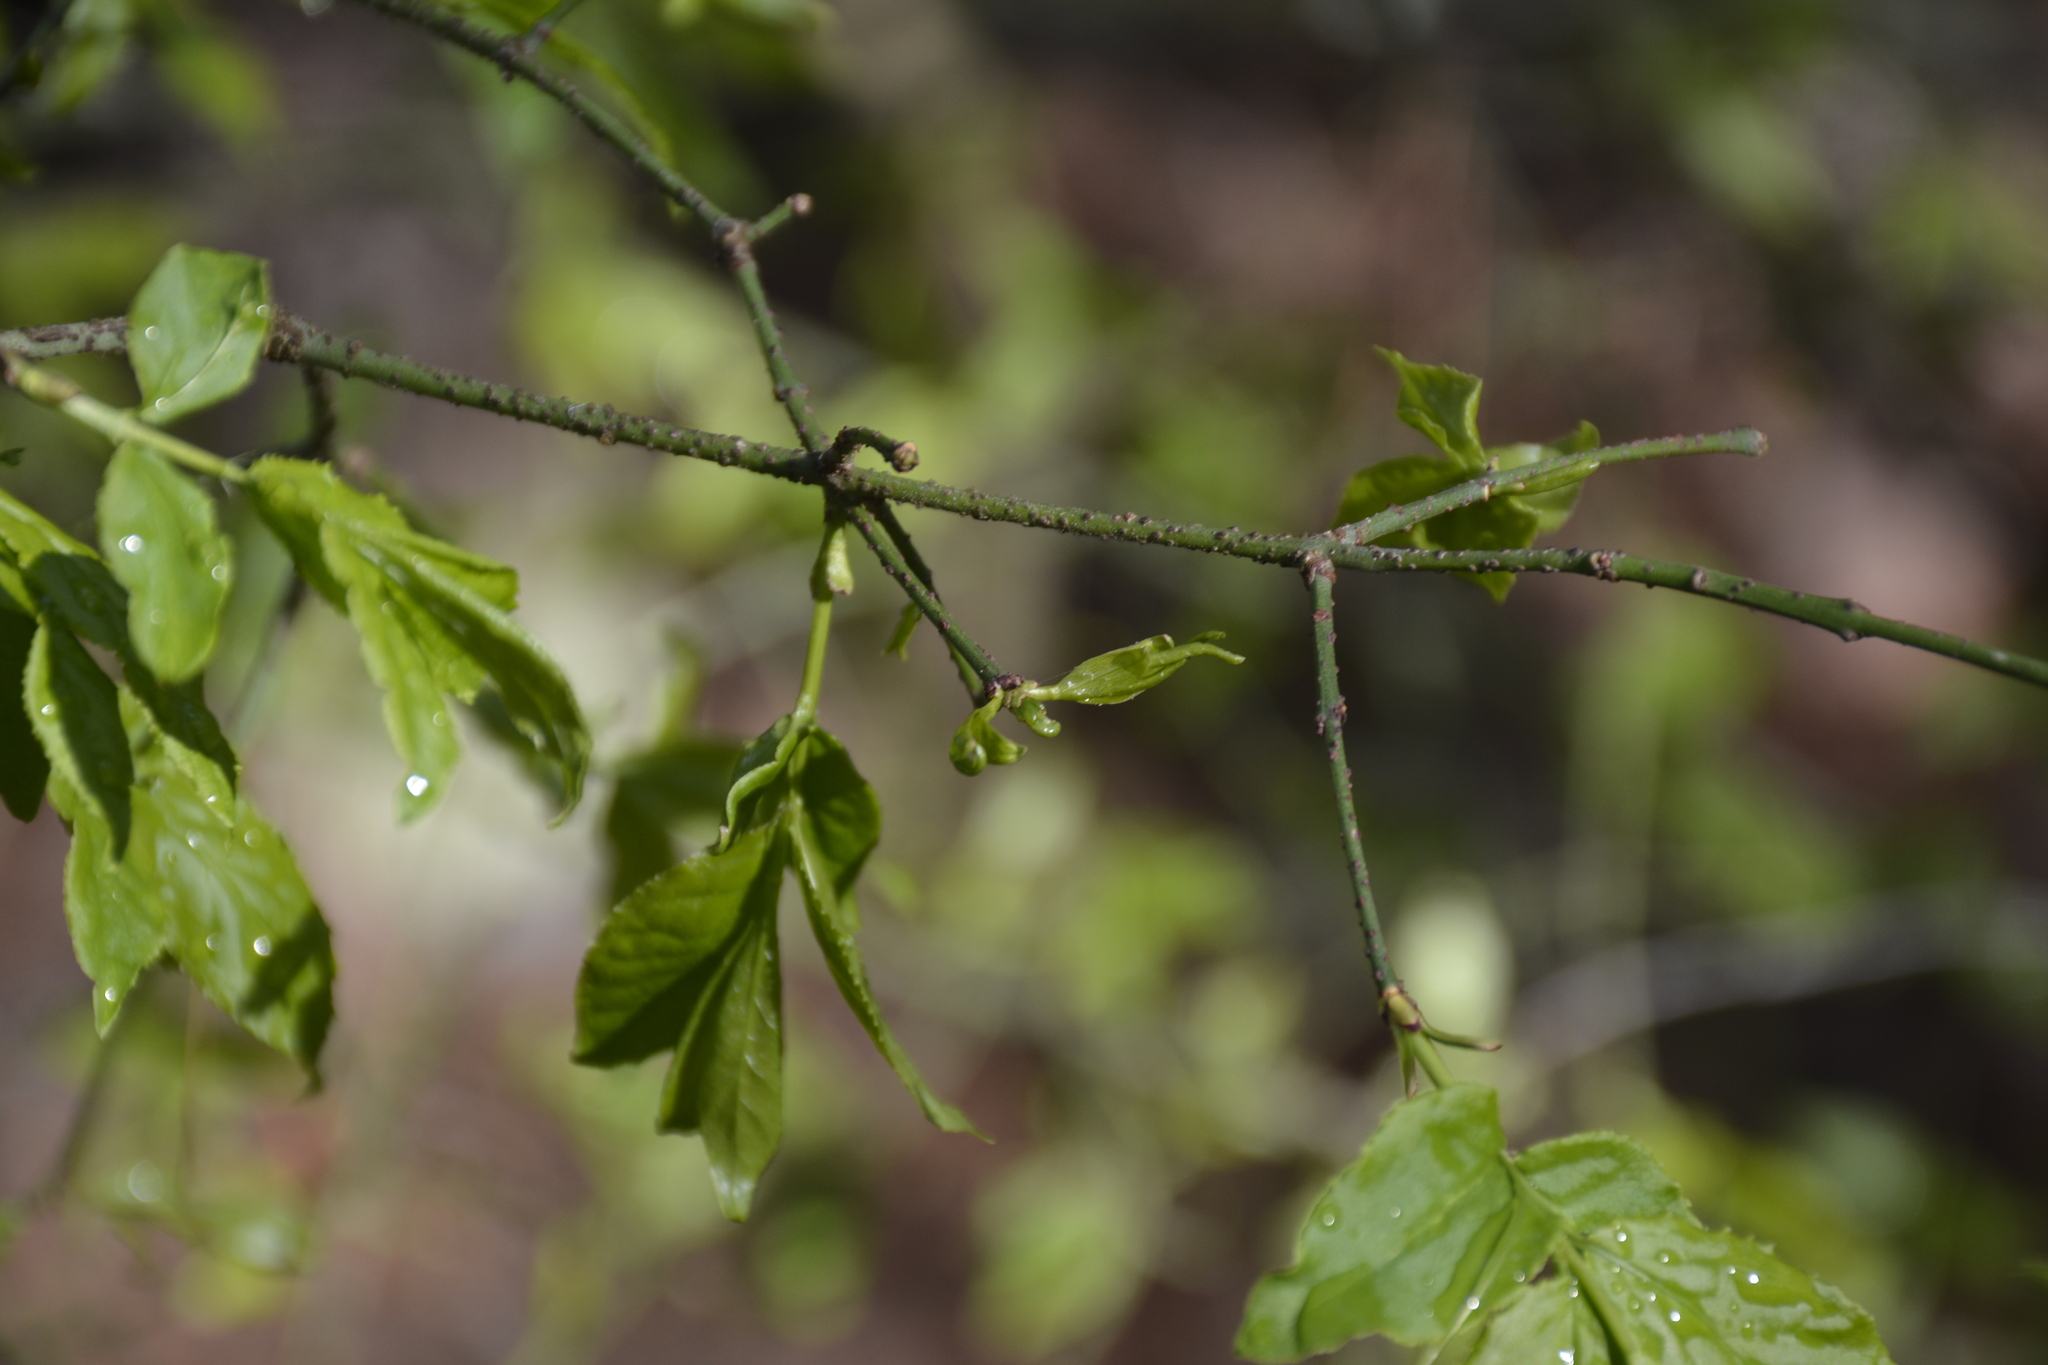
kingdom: Plantae
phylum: Tracheophyta
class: Magnoliopsida
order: Celastrales
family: Celastraceae
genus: Euonymus
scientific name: Euonymus verrucosus
